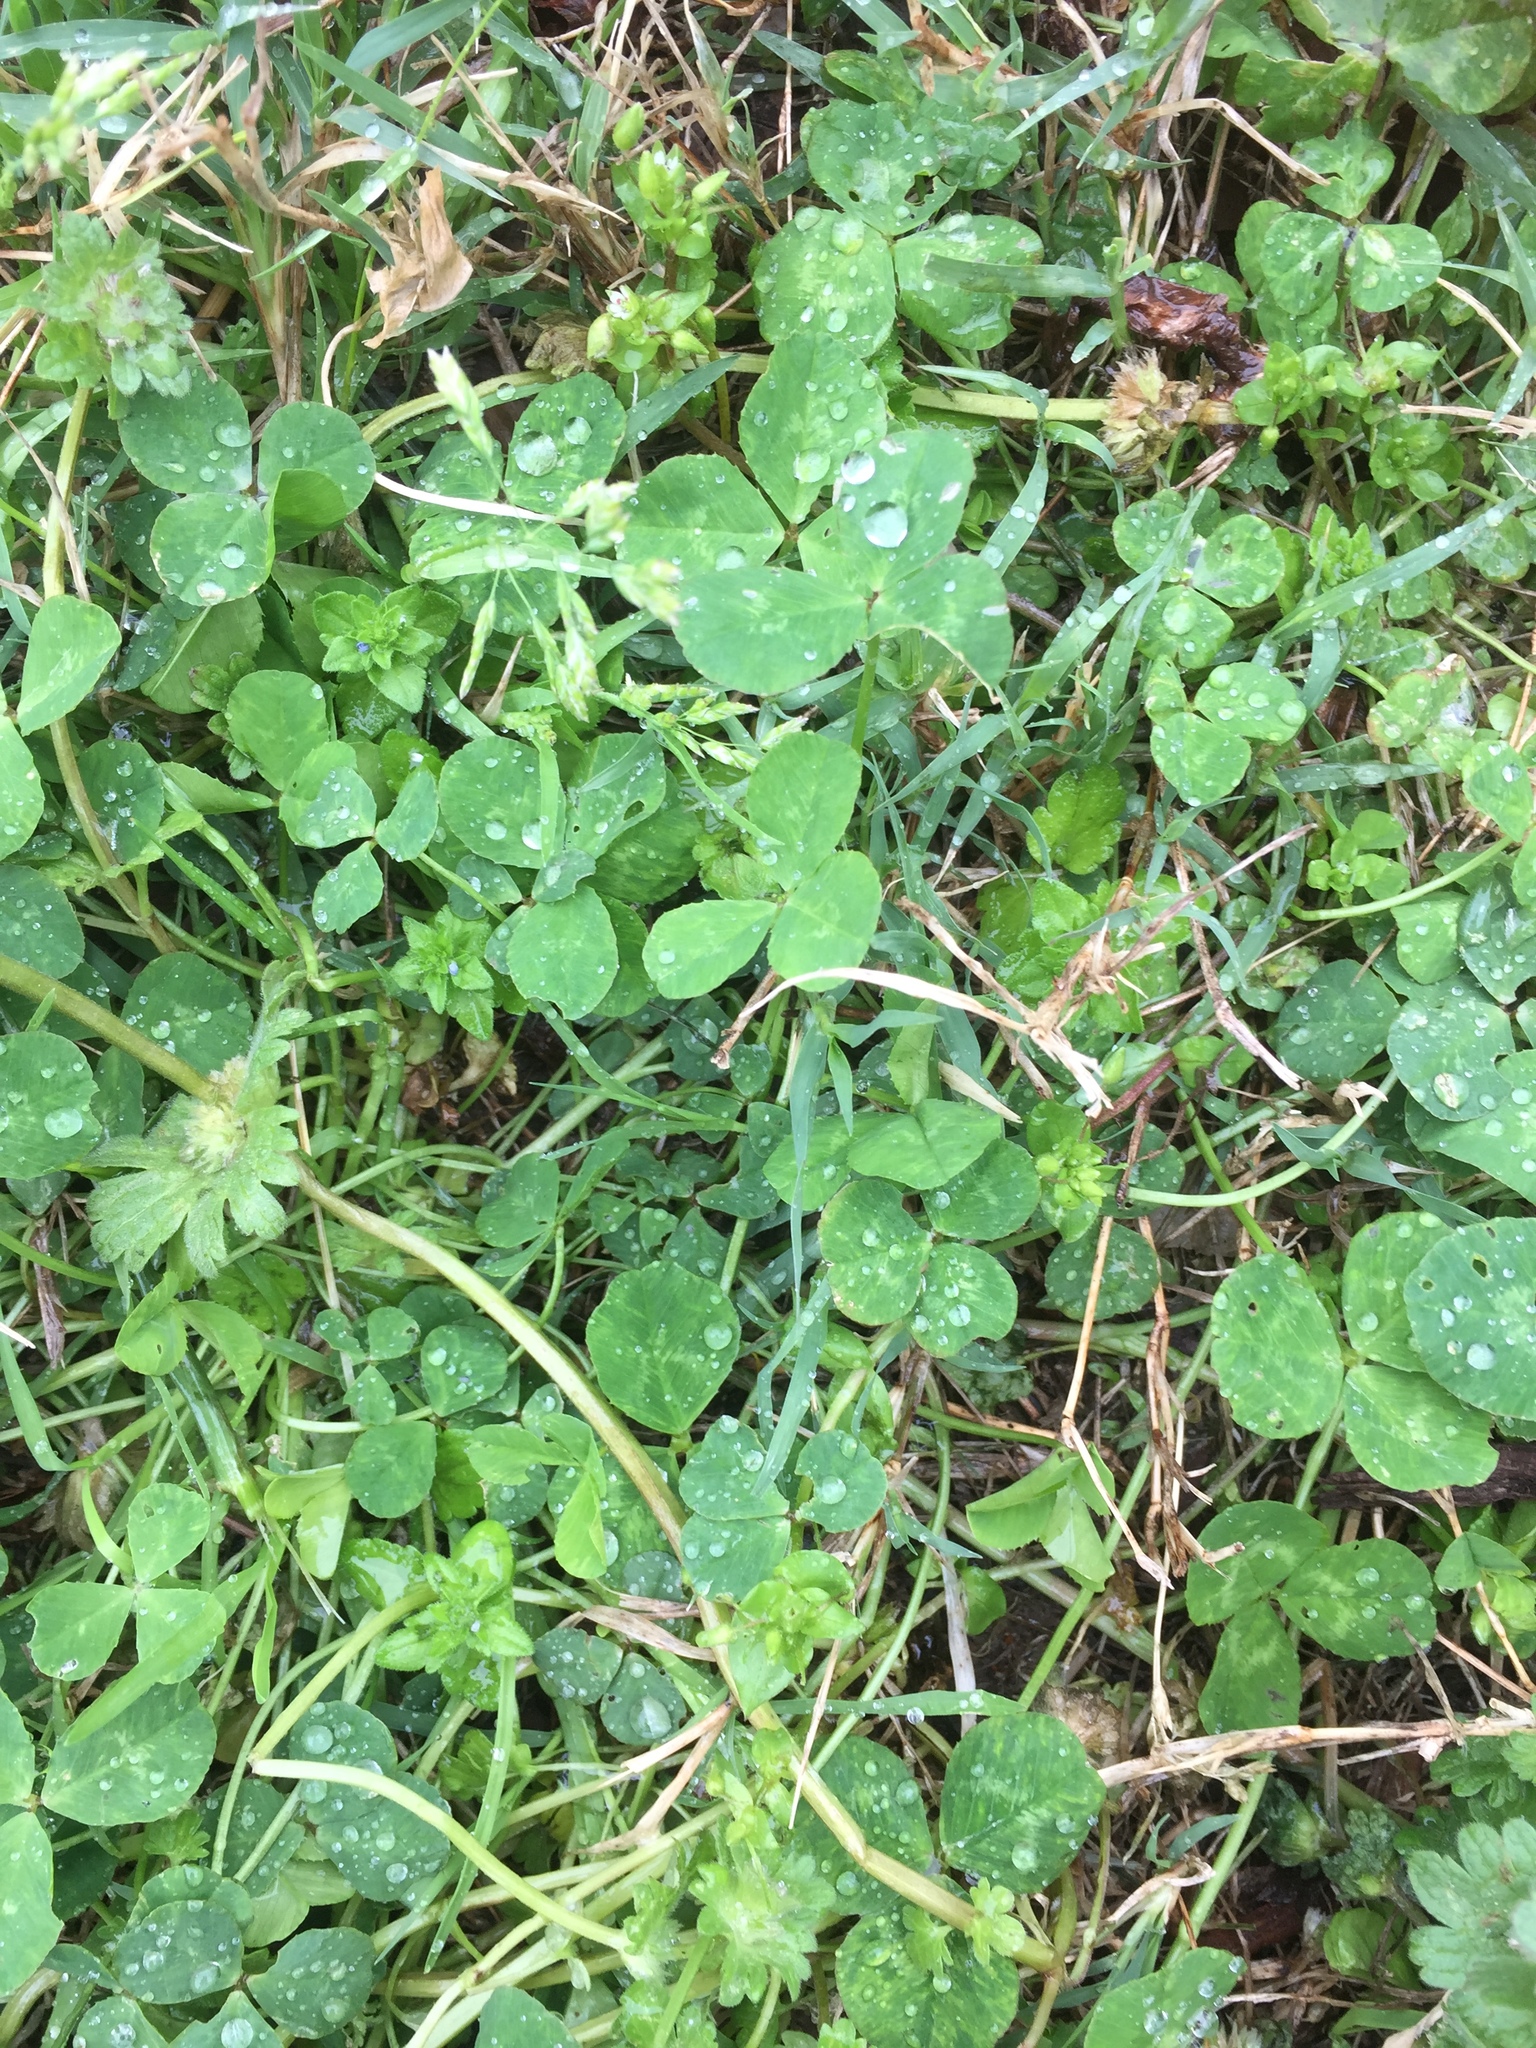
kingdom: Plantae
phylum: Tracheophyta
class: Magnoliopsida
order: Fabales
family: Fabaceae
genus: Trifolium
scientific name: Trifolium repens
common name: White clover
